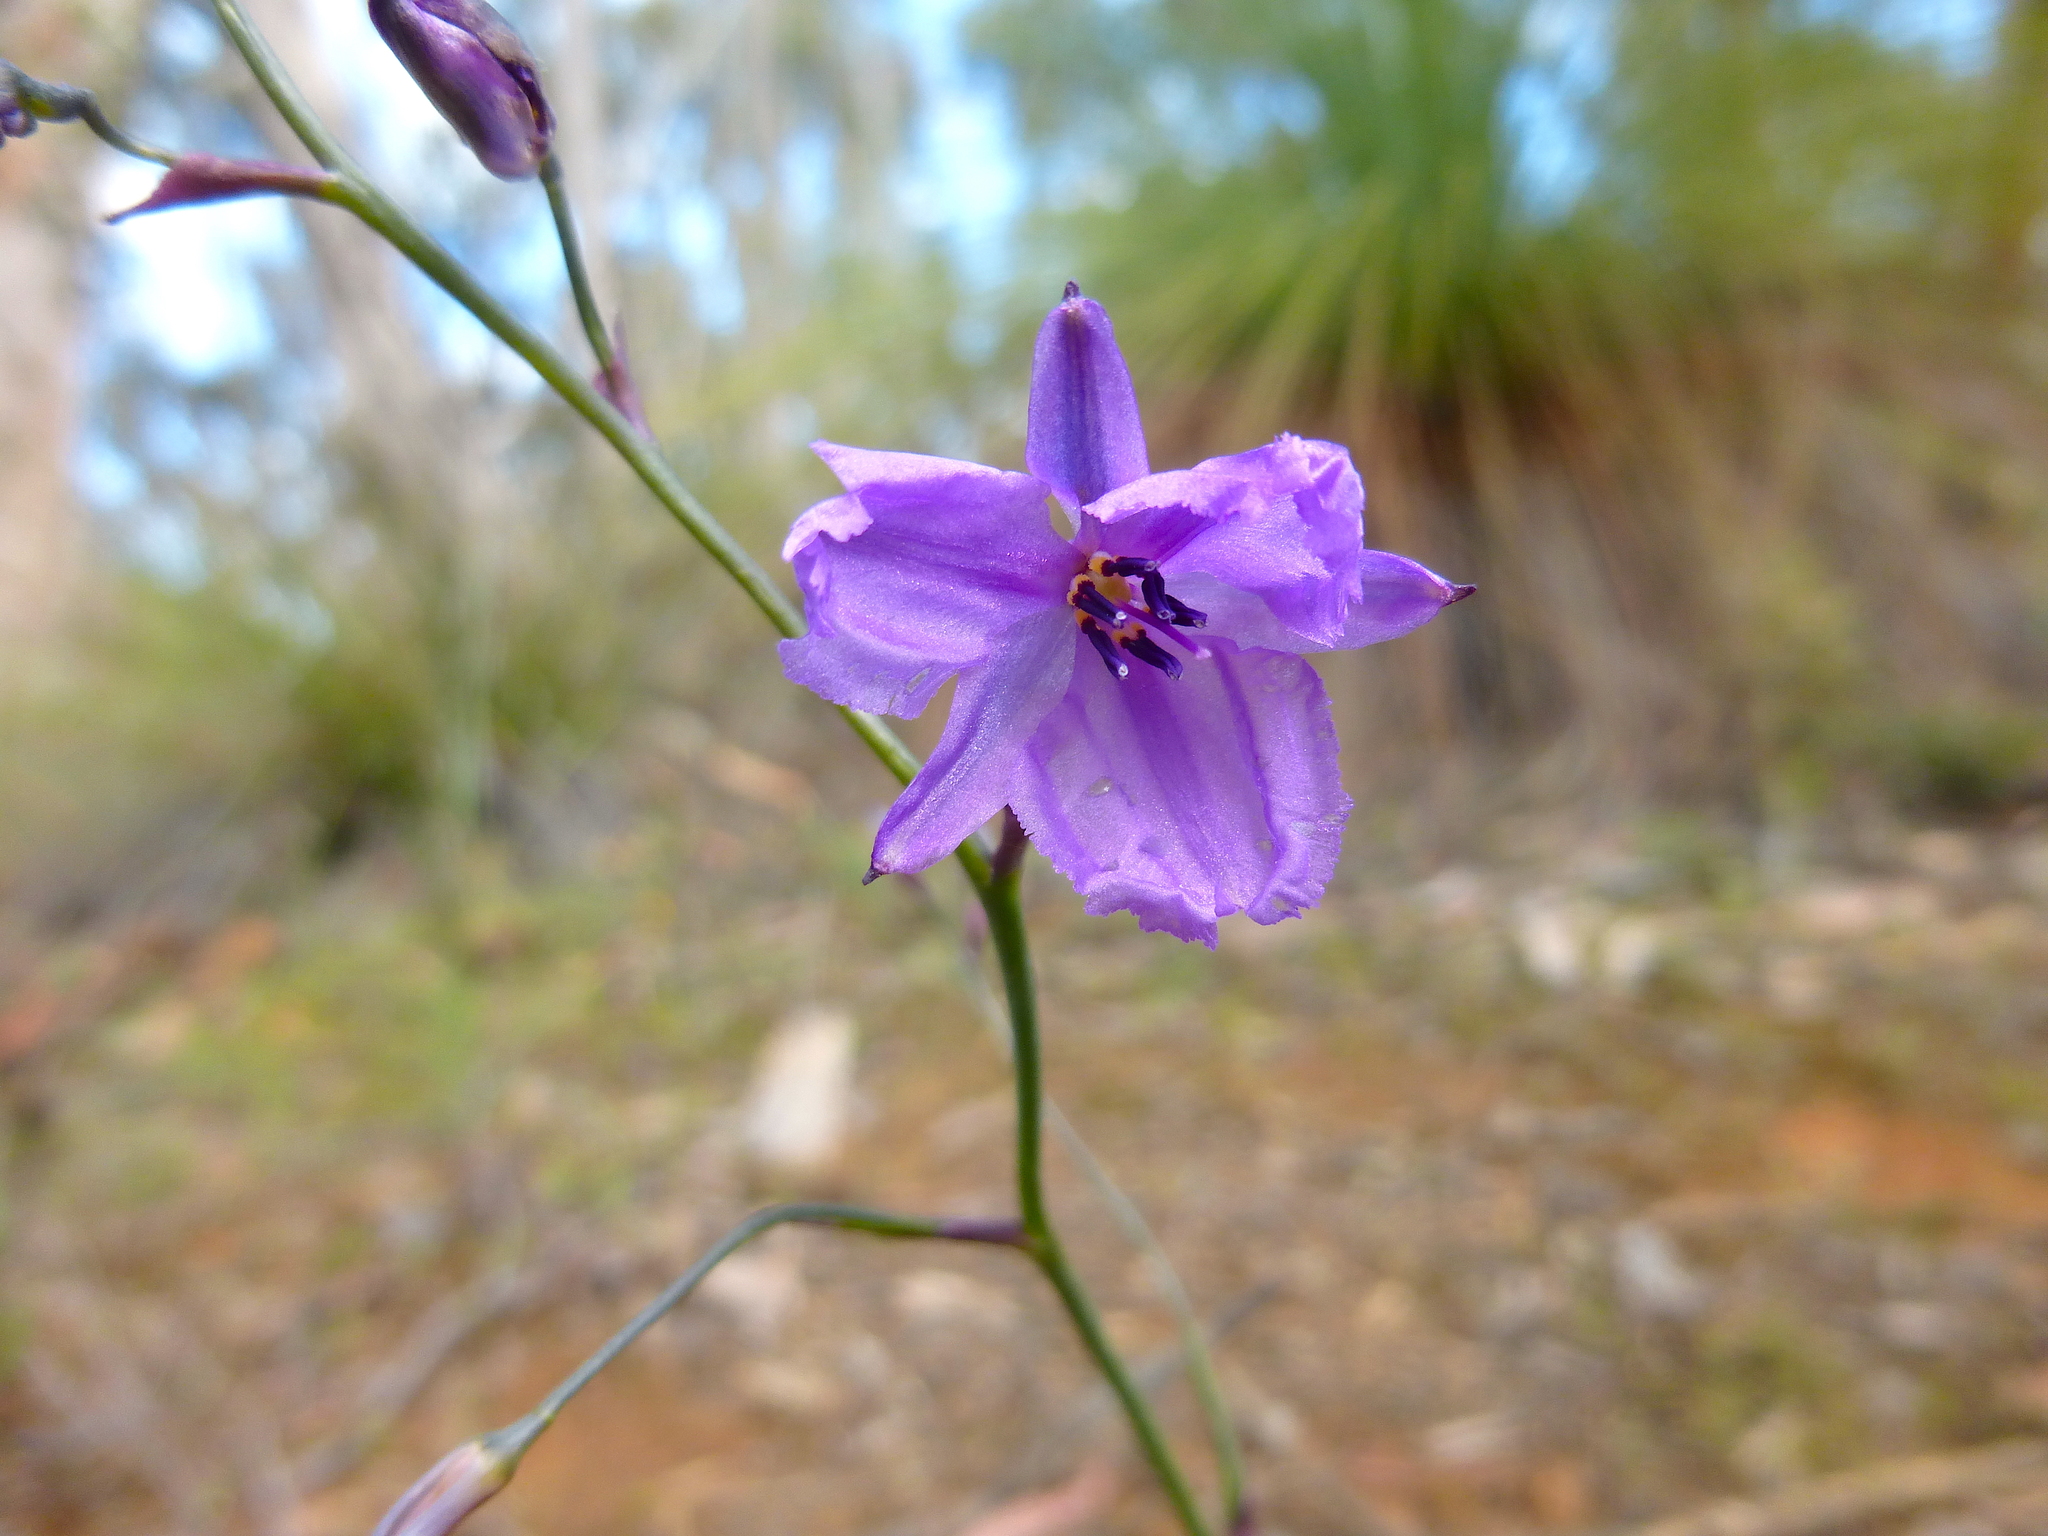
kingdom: Plantae
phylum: Tracheophyta
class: Liliopsida
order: Asparagales
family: Asparagaceae
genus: Arthropodium
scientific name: Arthropodium strictum
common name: Chocolate-lily
